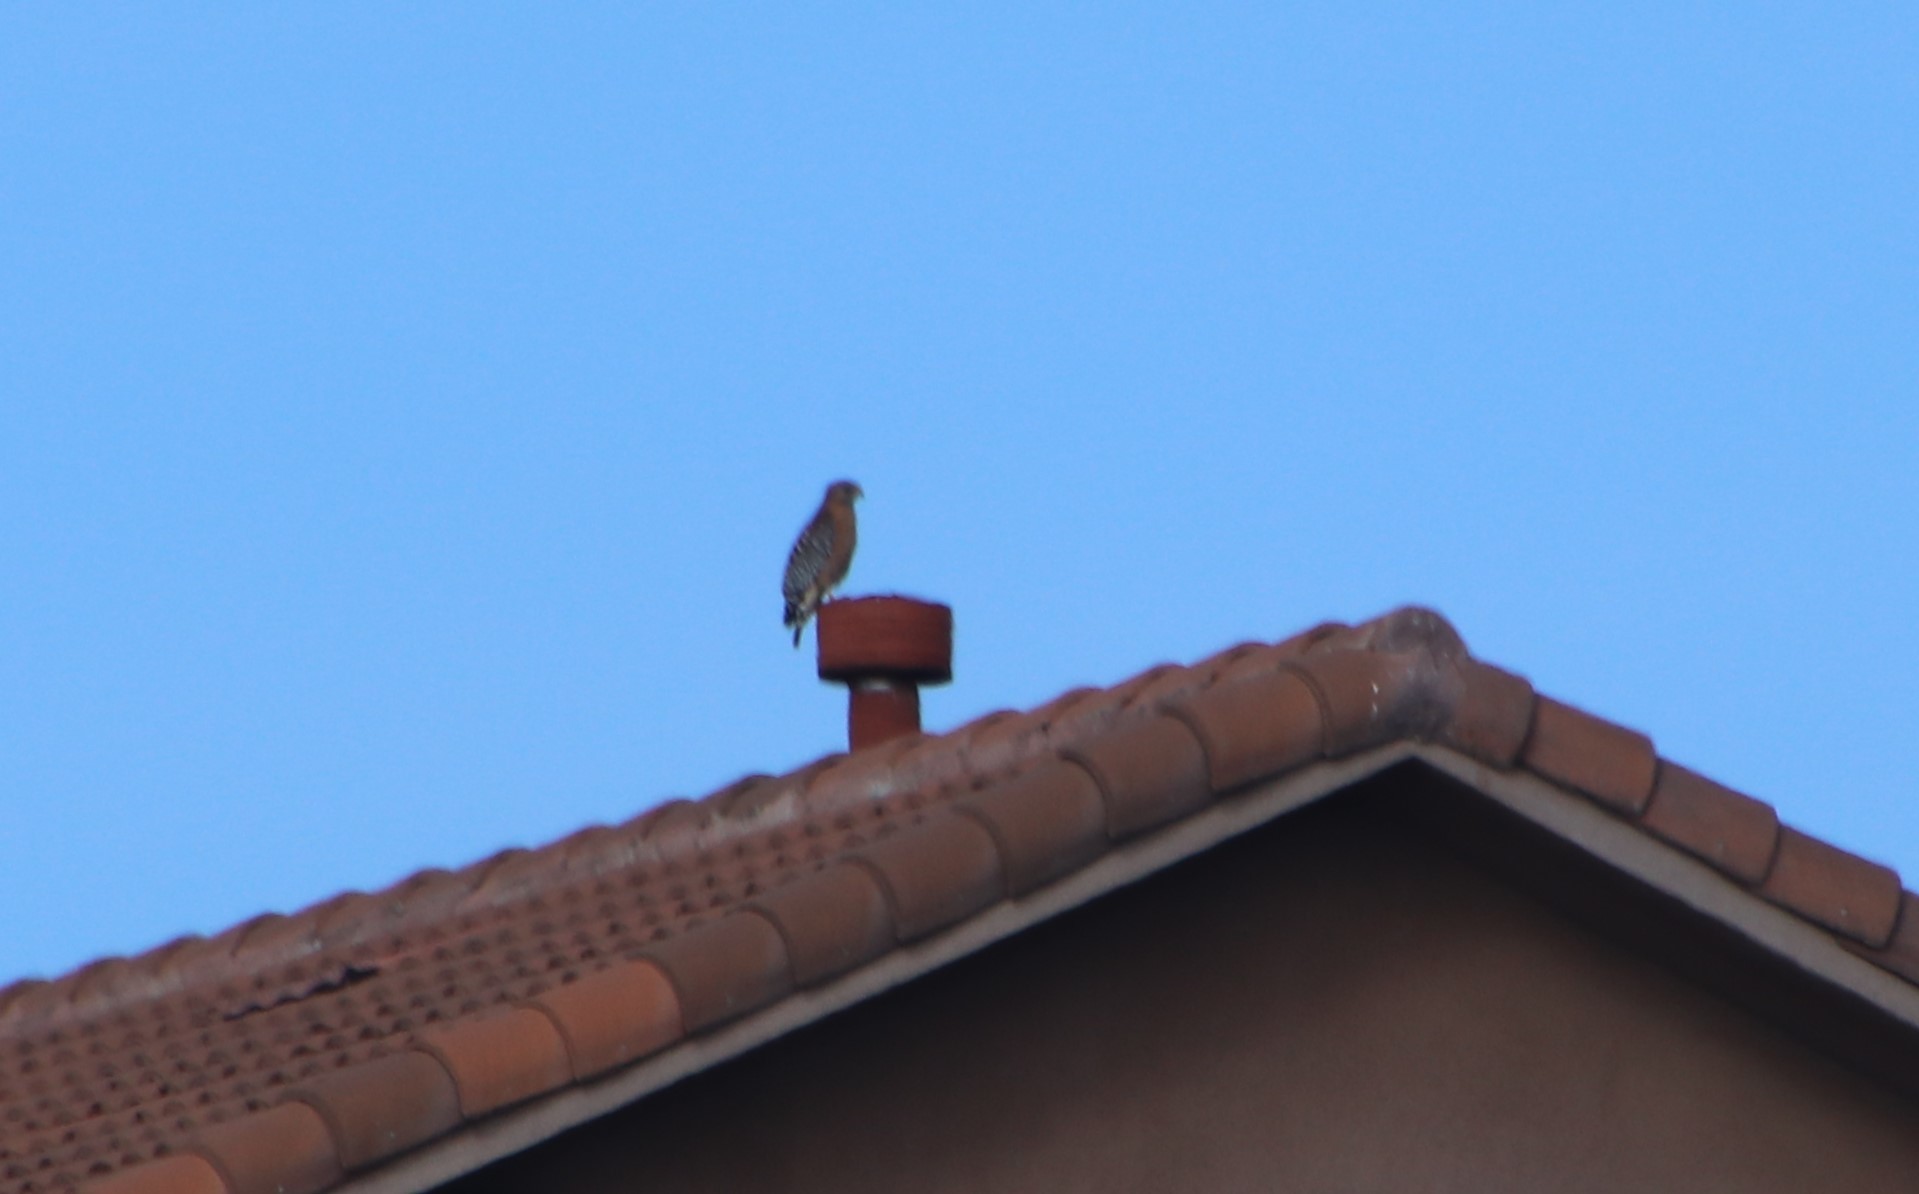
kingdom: Animalia
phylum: Chordata
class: Aves
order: Accipitriformes
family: Accipitridae
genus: Buteo
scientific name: Buteo lineatus
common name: Red-shouldered hawk
